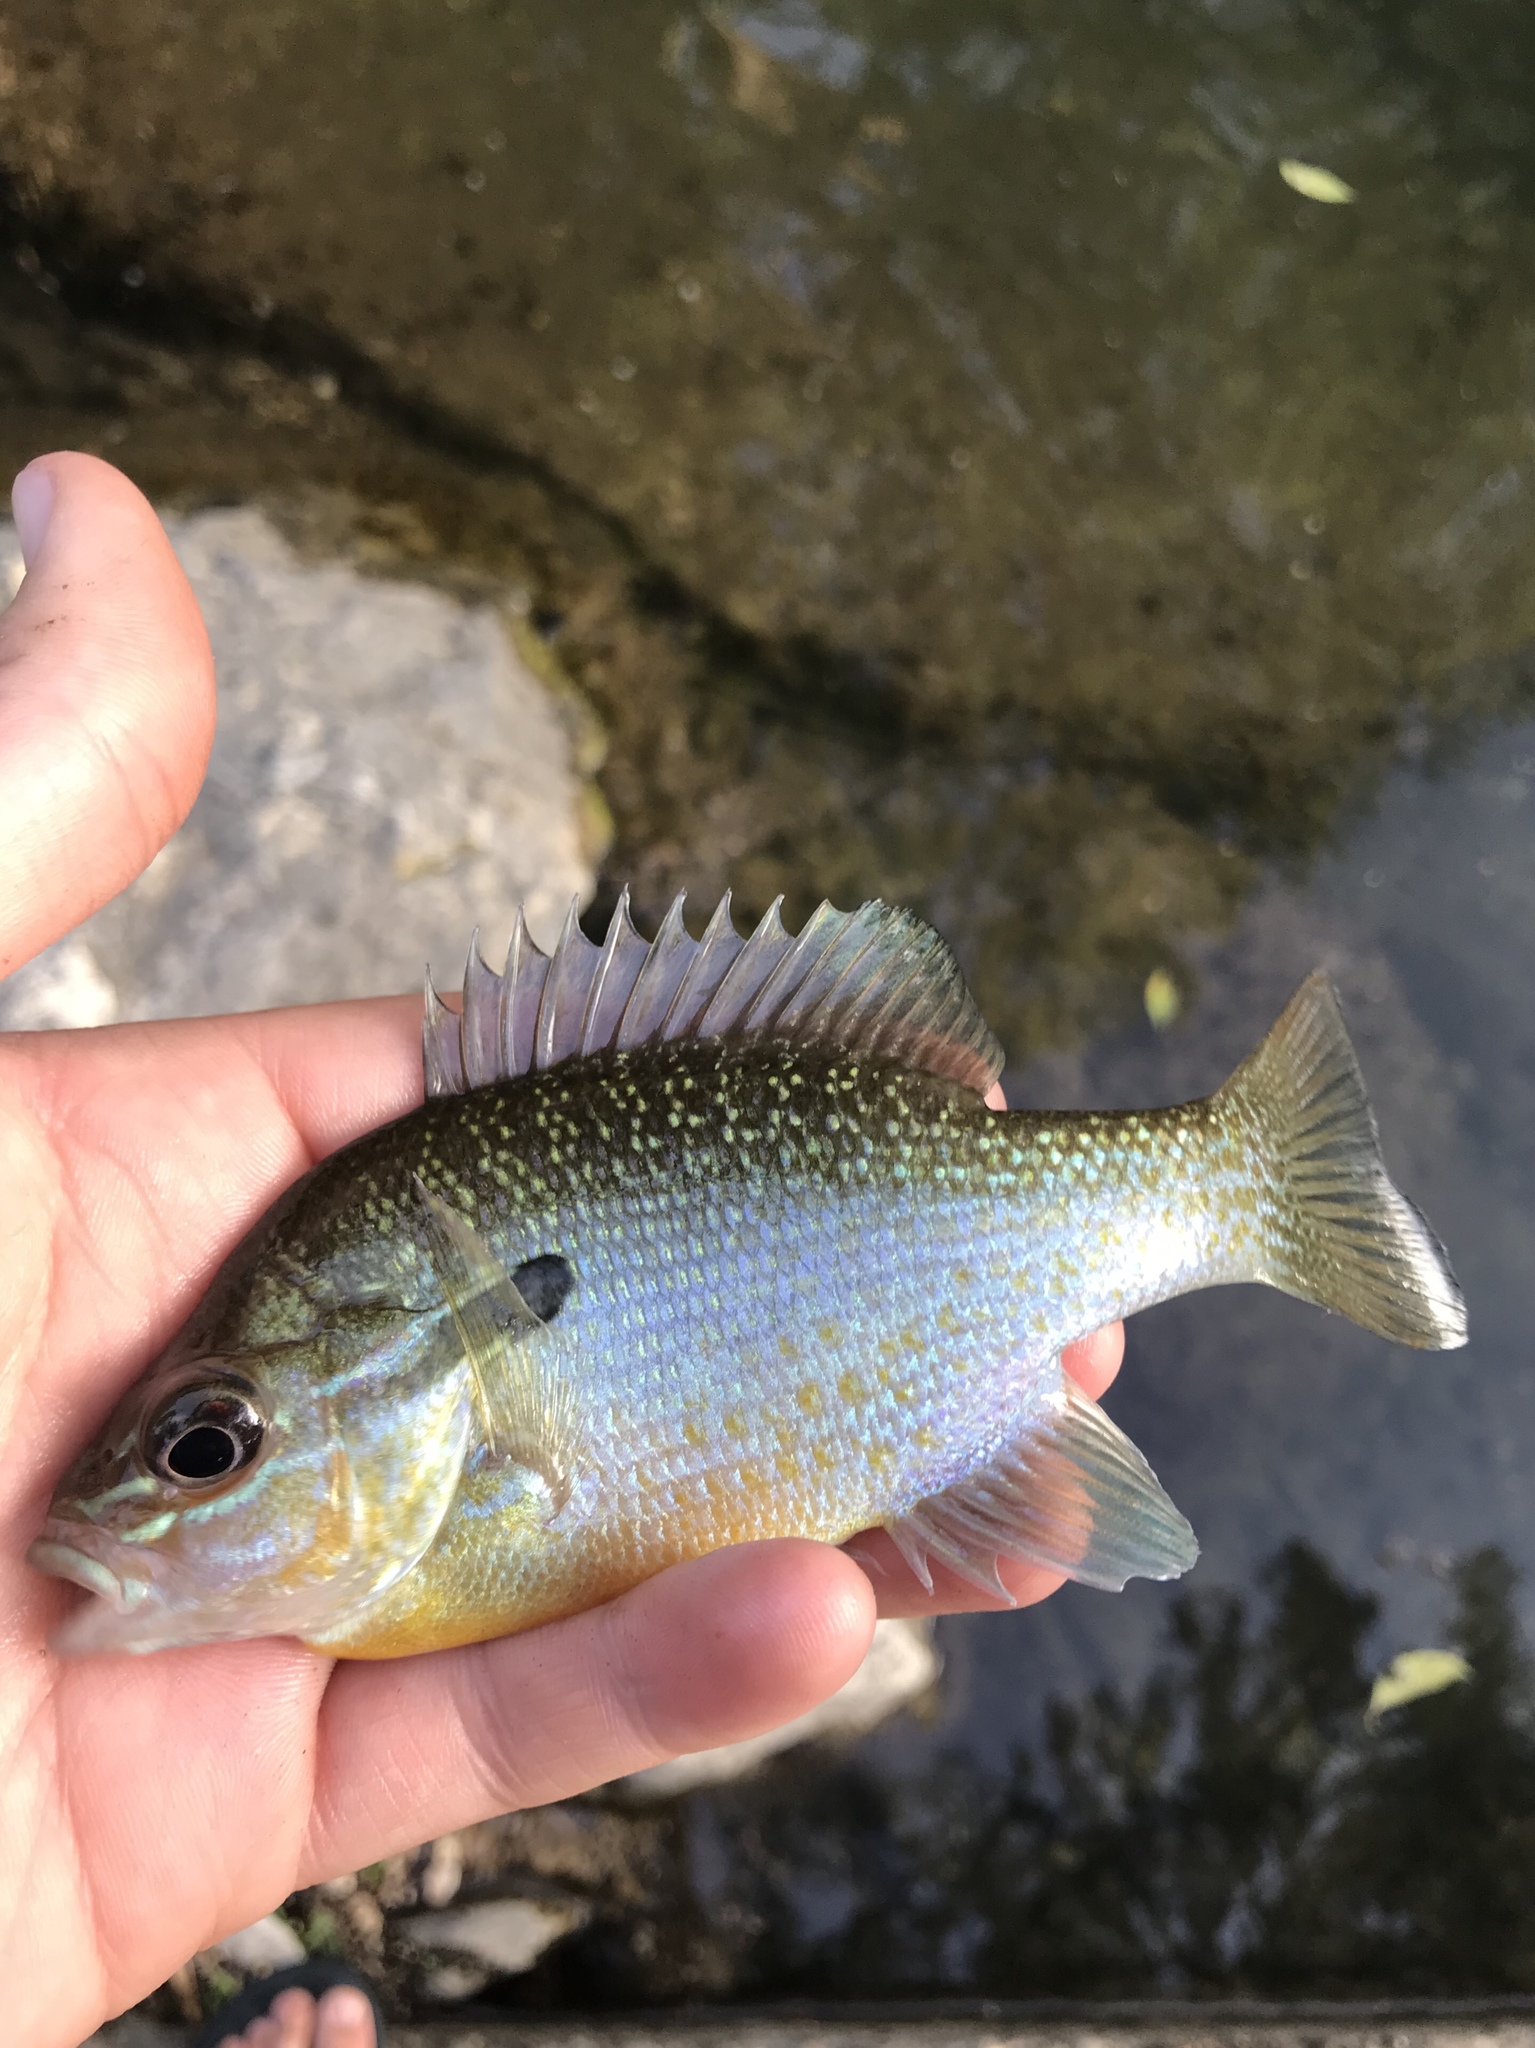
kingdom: Animalia
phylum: Chordata
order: Perciformes
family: Centrarchidae
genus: Lepomis
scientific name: Lepomis auritus
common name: Redbreast sunfish
